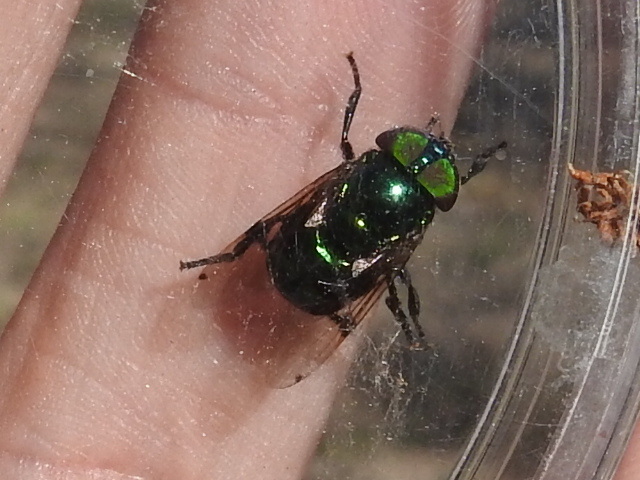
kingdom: Animalia
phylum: Arthropoda
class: Insecta
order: Diptera
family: Syrphidae
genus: Ornidia
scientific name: Ornidia obesa
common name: Syrphid fly
